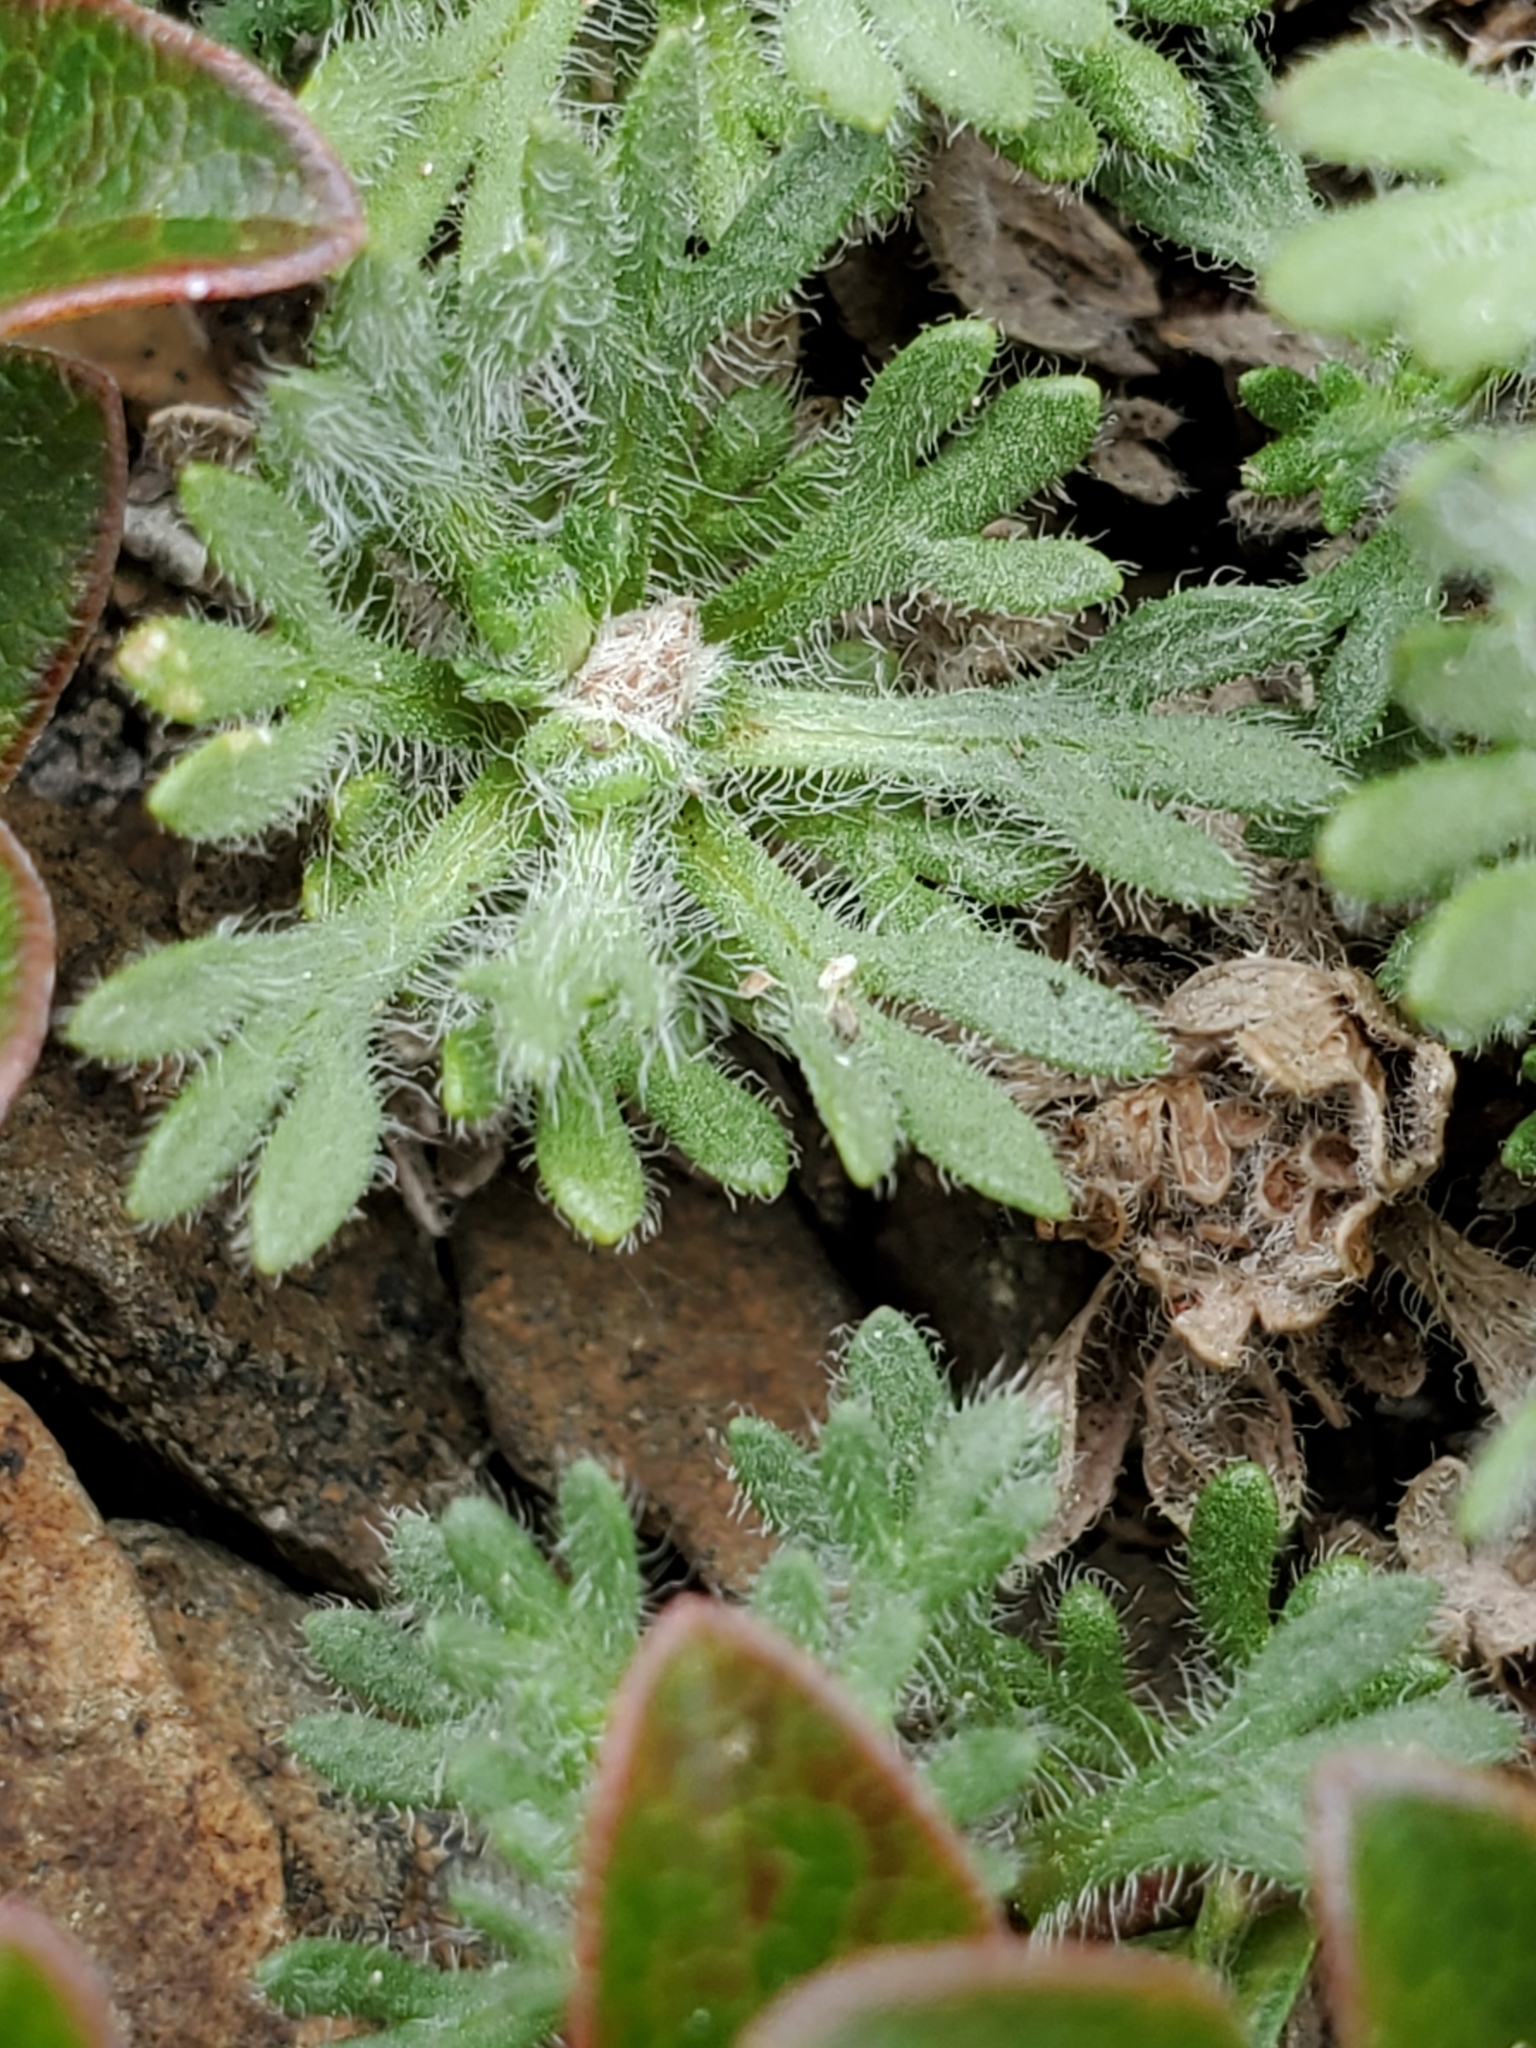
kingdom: Plantae
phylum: Tracheophyta
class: Magnoliopsida
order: Asterales
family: Asteraceae
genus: Erigeron
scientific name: Erigeron salishii
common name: Salish daisy
